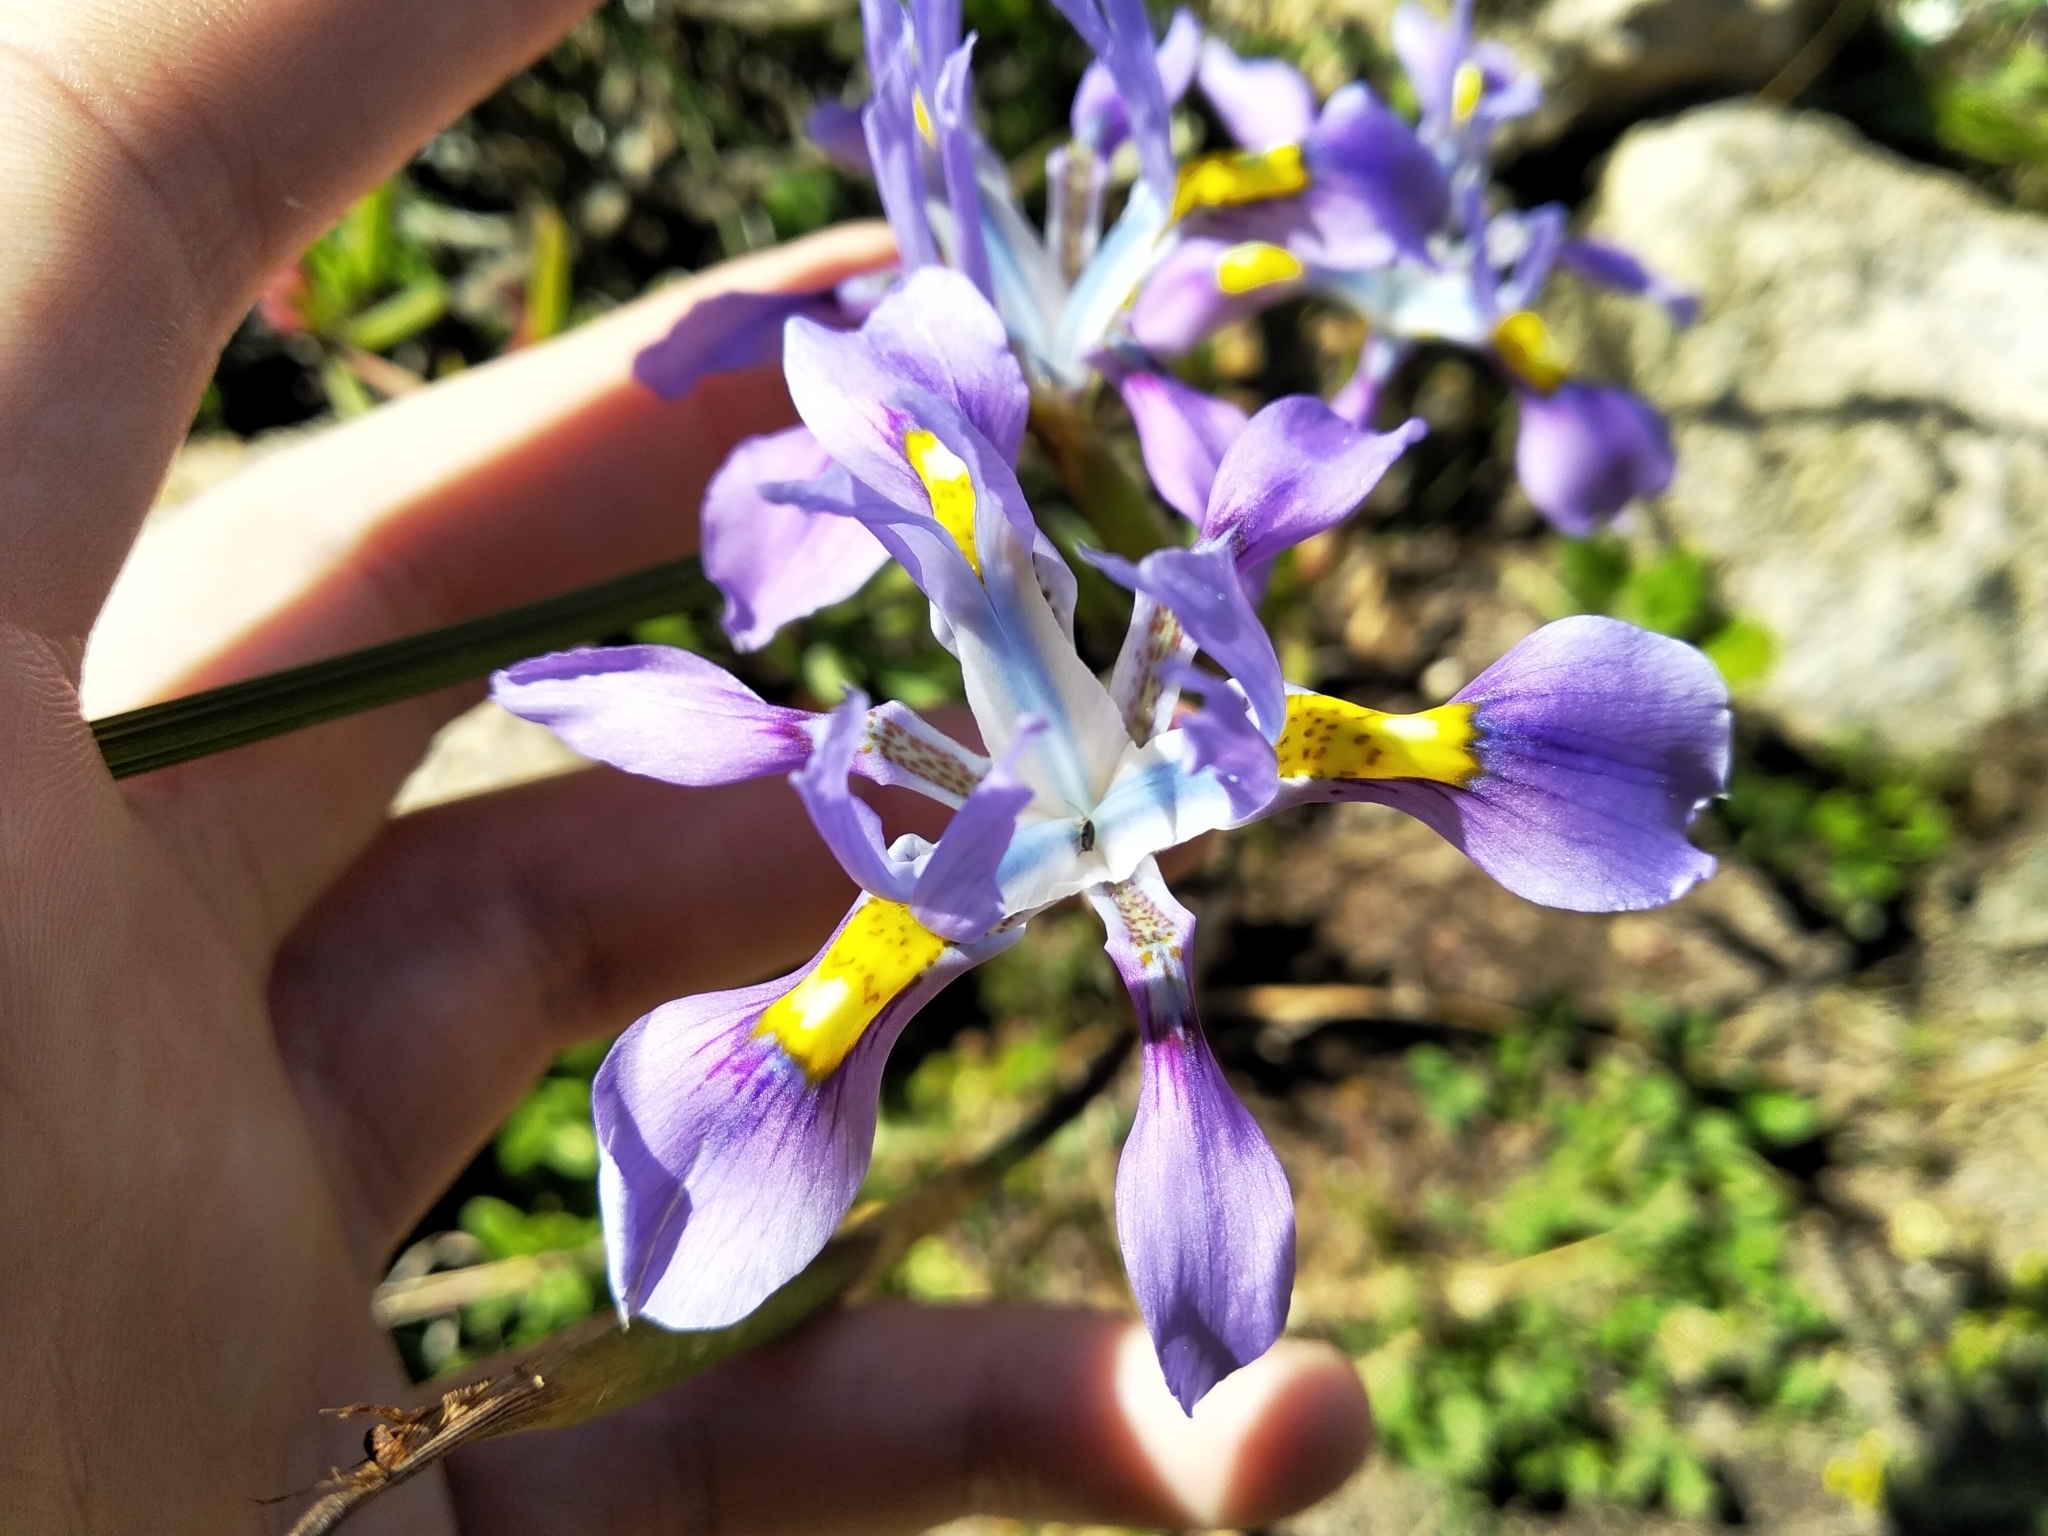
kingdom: Plantae
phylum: Tracheophyta
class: Liliopsida
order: Asparagales
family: Iridaceae
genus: Moraea
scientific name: Moraea fugax
